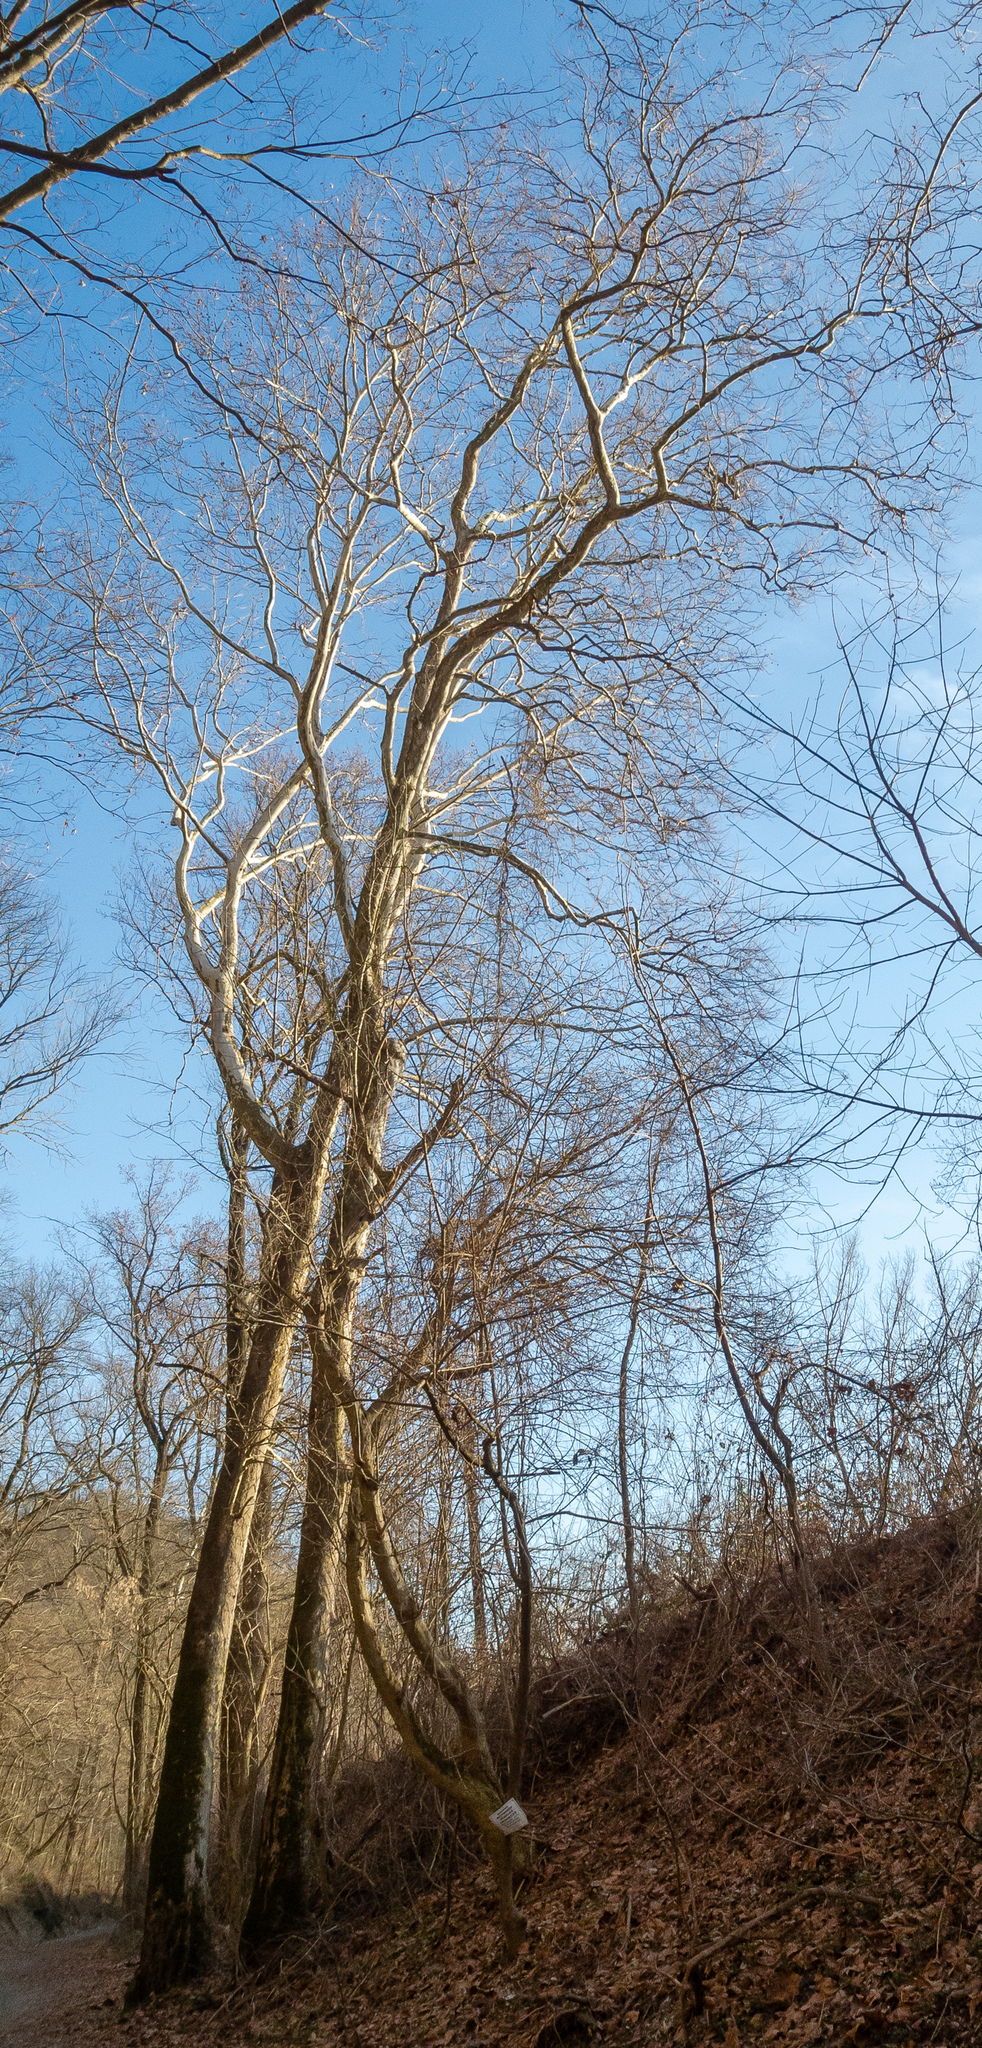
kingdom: Plantae
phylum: Tracheophyta
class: Magnoliopsida
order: Proteales
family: Platanaceae
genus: Platanus
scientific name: Platanus occidentalis
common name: American sycamore
